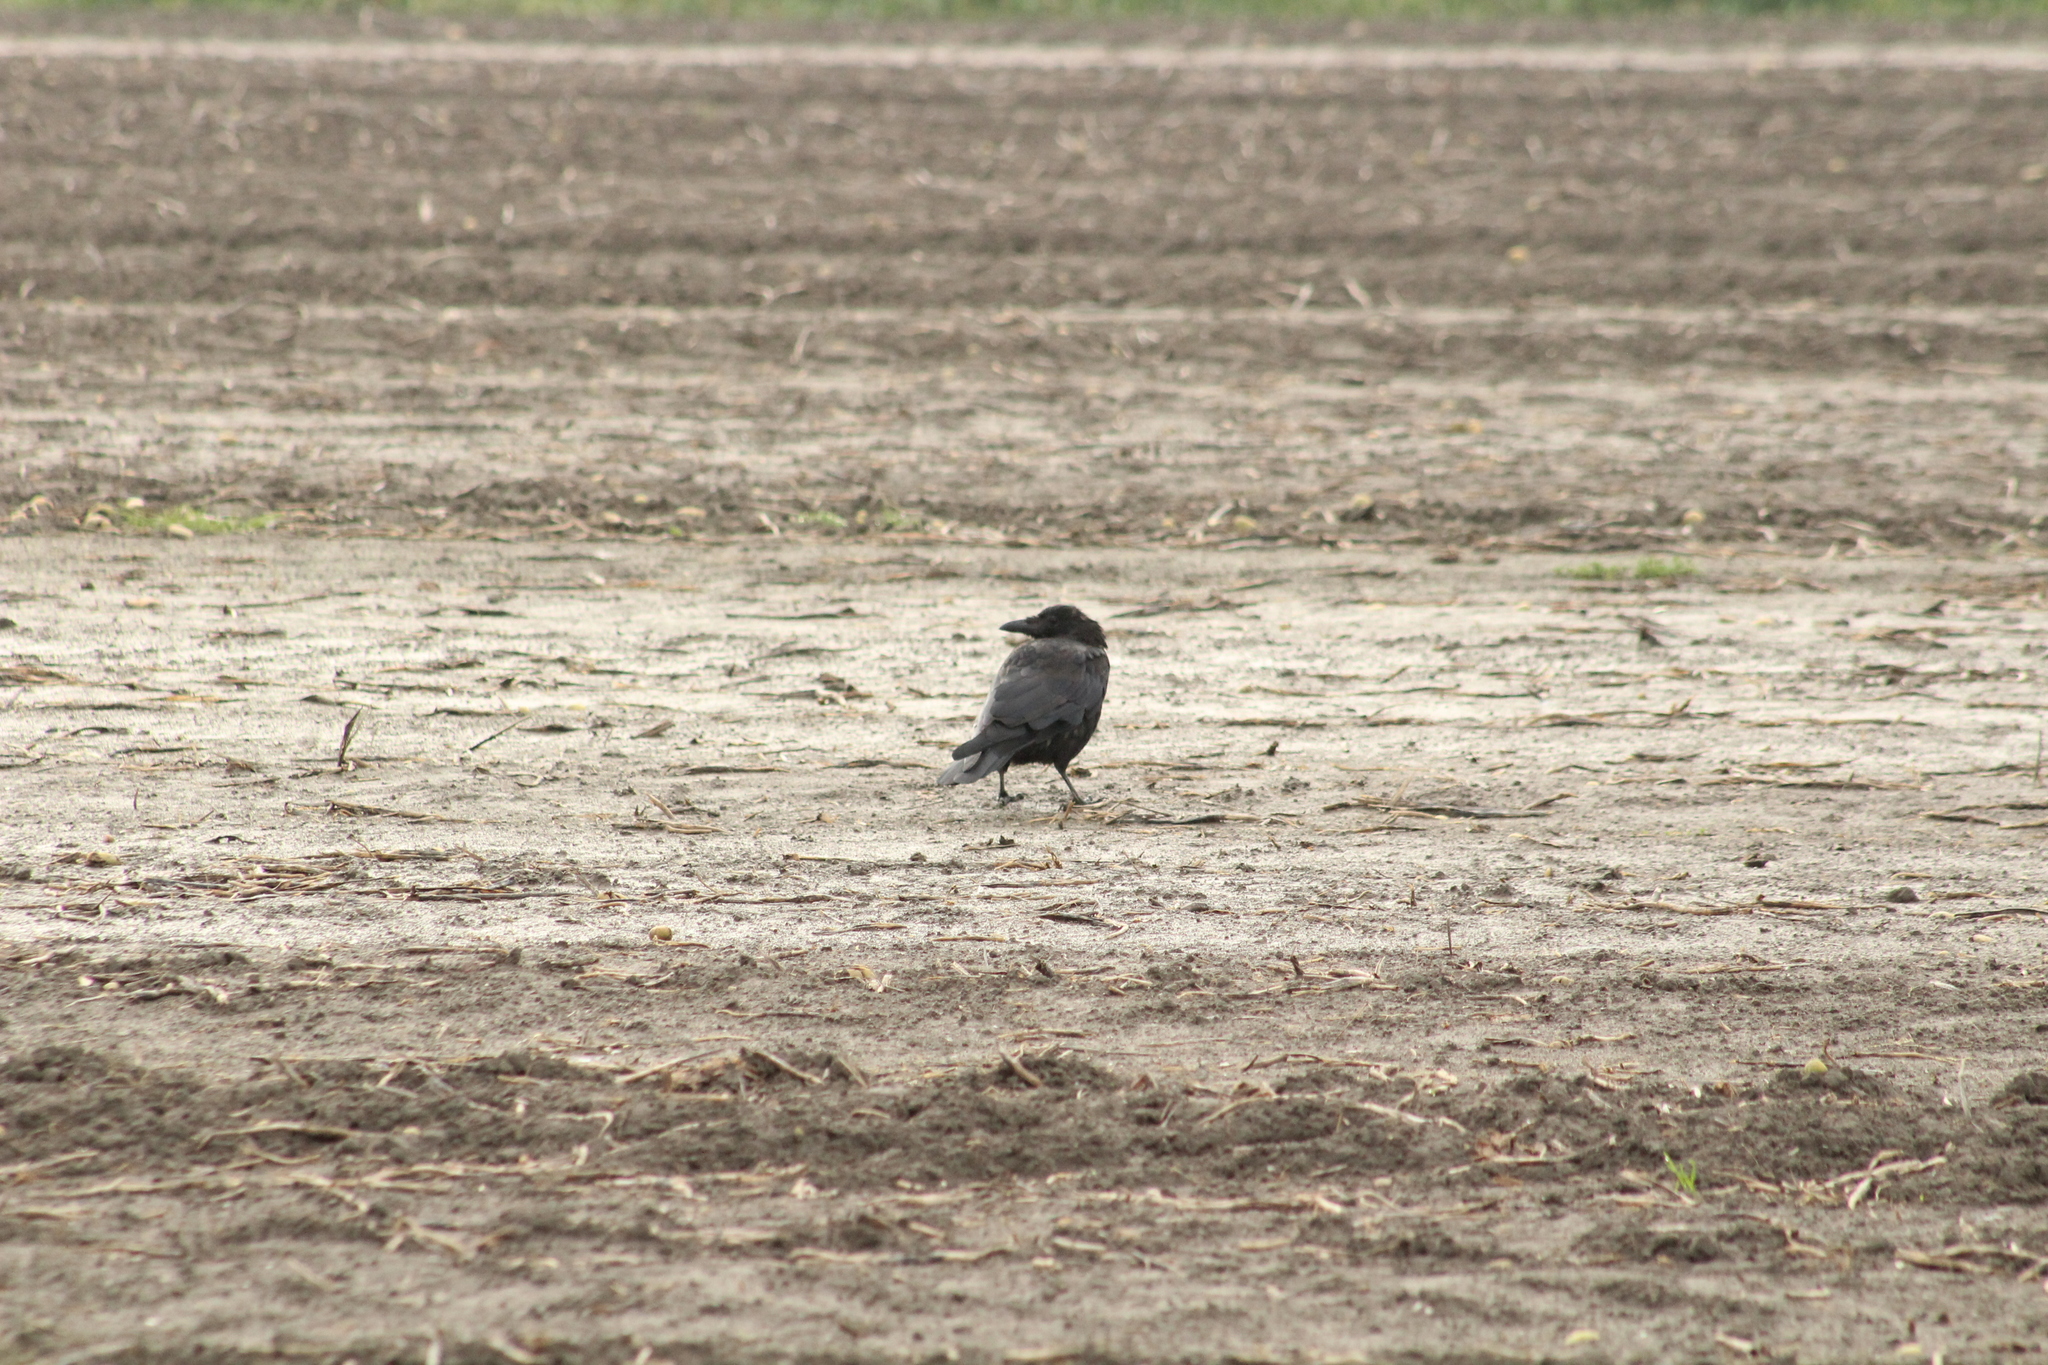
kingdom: Animalia
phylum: Chordata
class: Aves
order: Passeriformes
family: Corvidae
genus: Corvus
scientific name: Corvus corone
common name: Carrion crow
